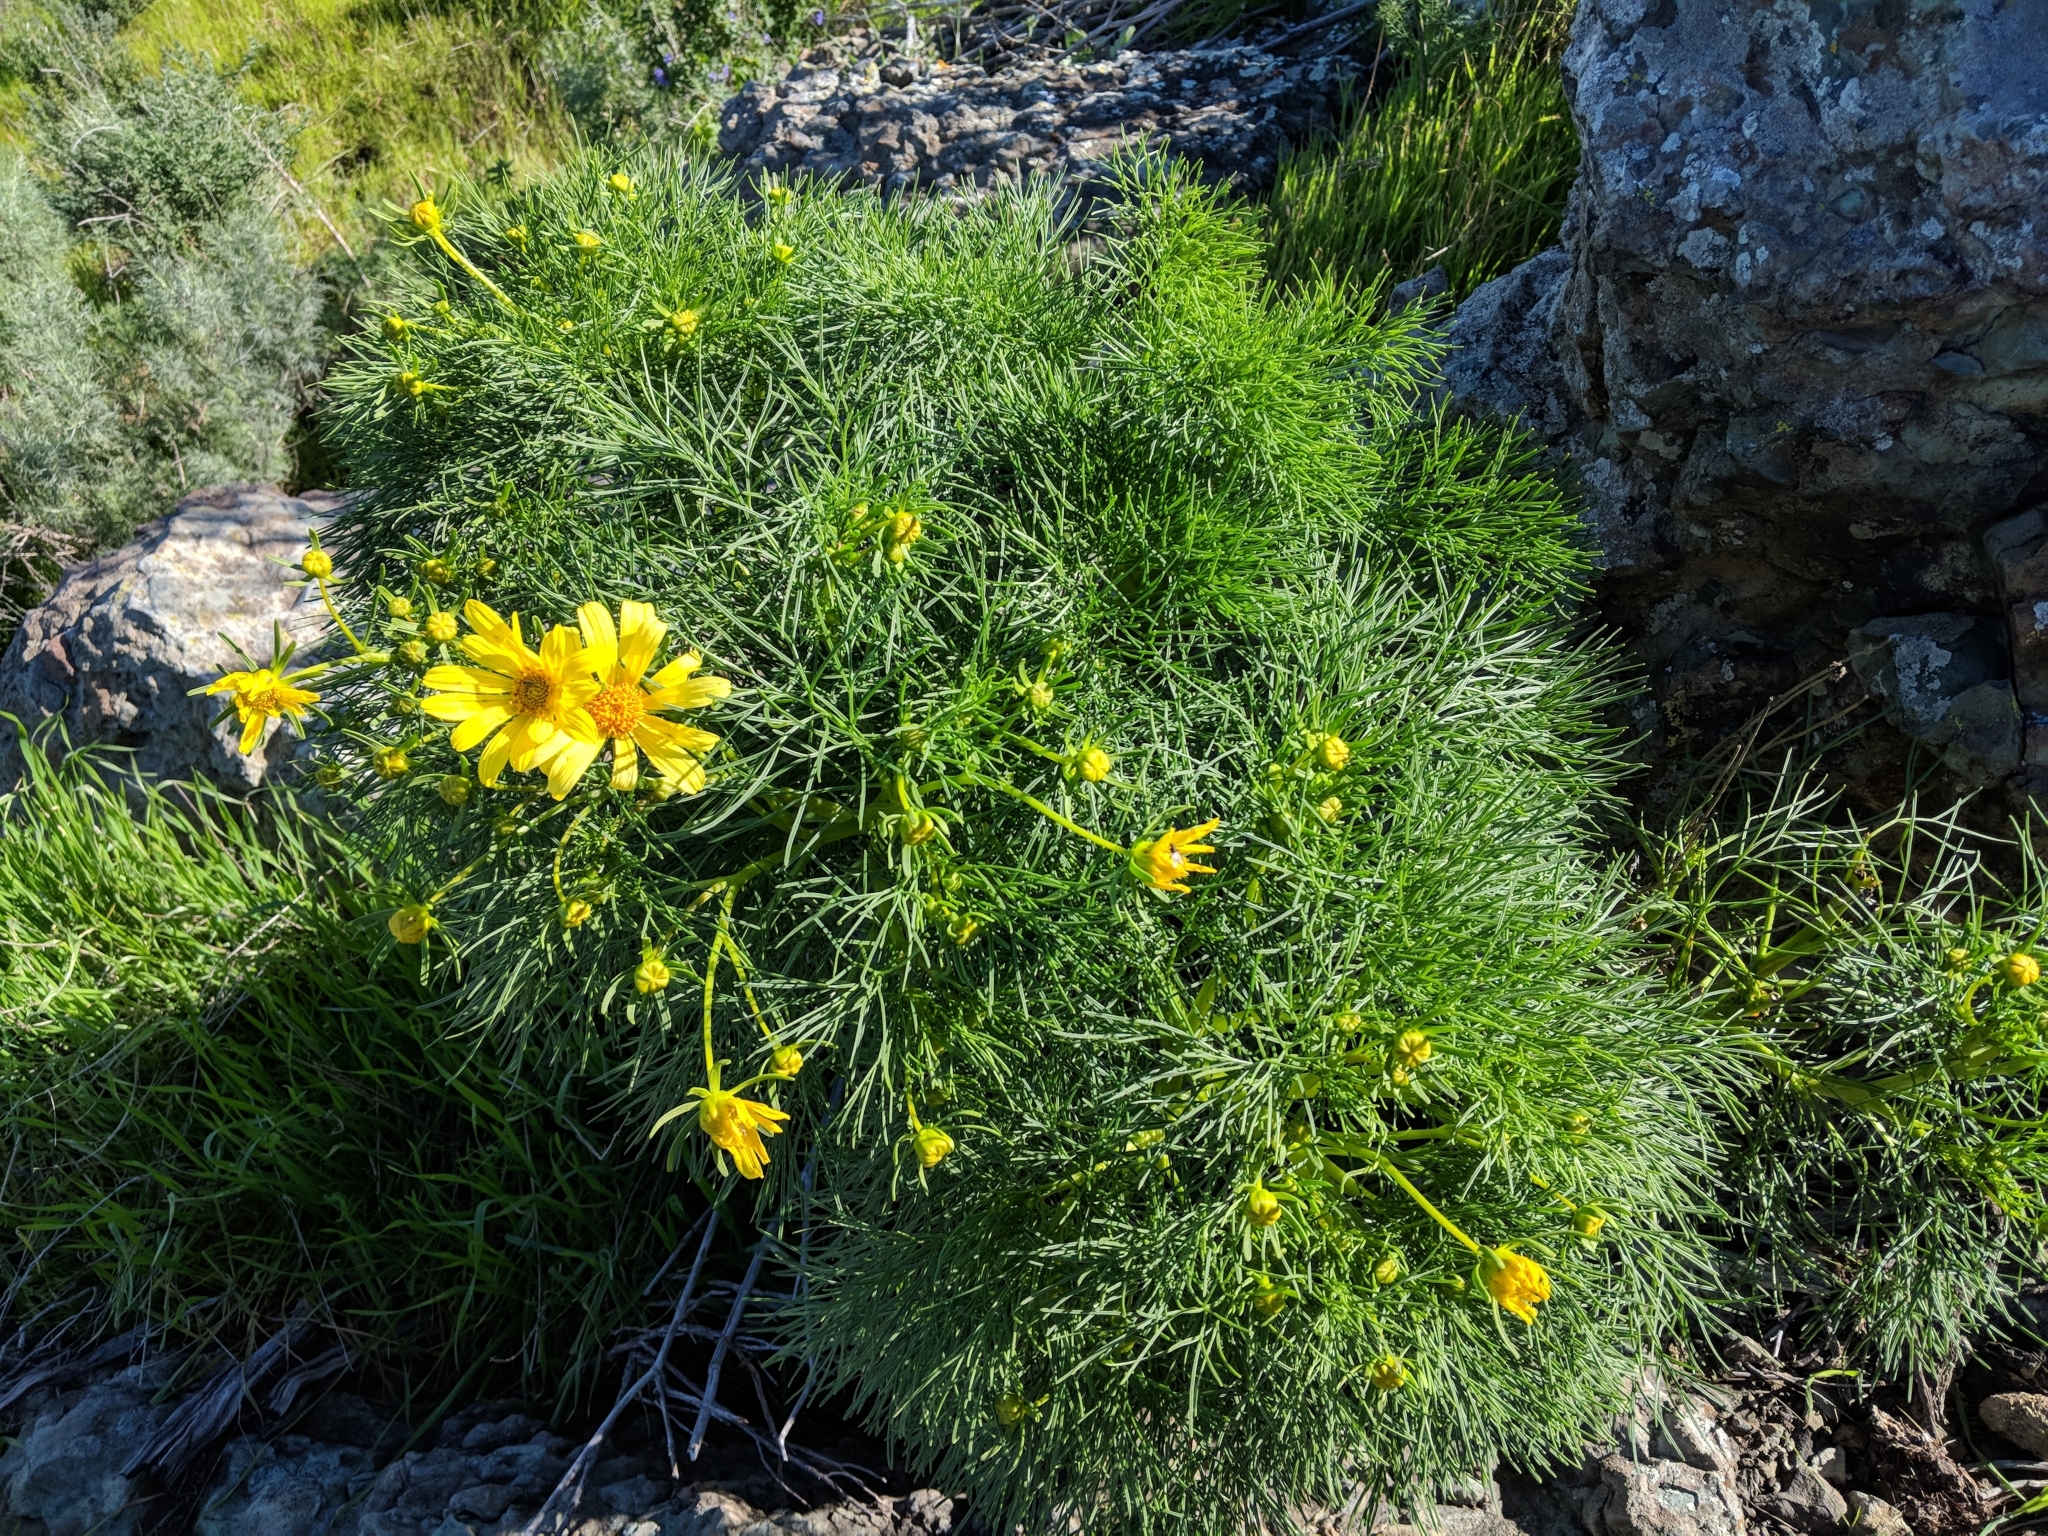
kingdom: Plantae
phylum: Tracheophyta
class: Magnoliopsida
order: Asterales
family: Asteraceae
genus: Coreopsis
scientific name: Coreopsis gigantea
